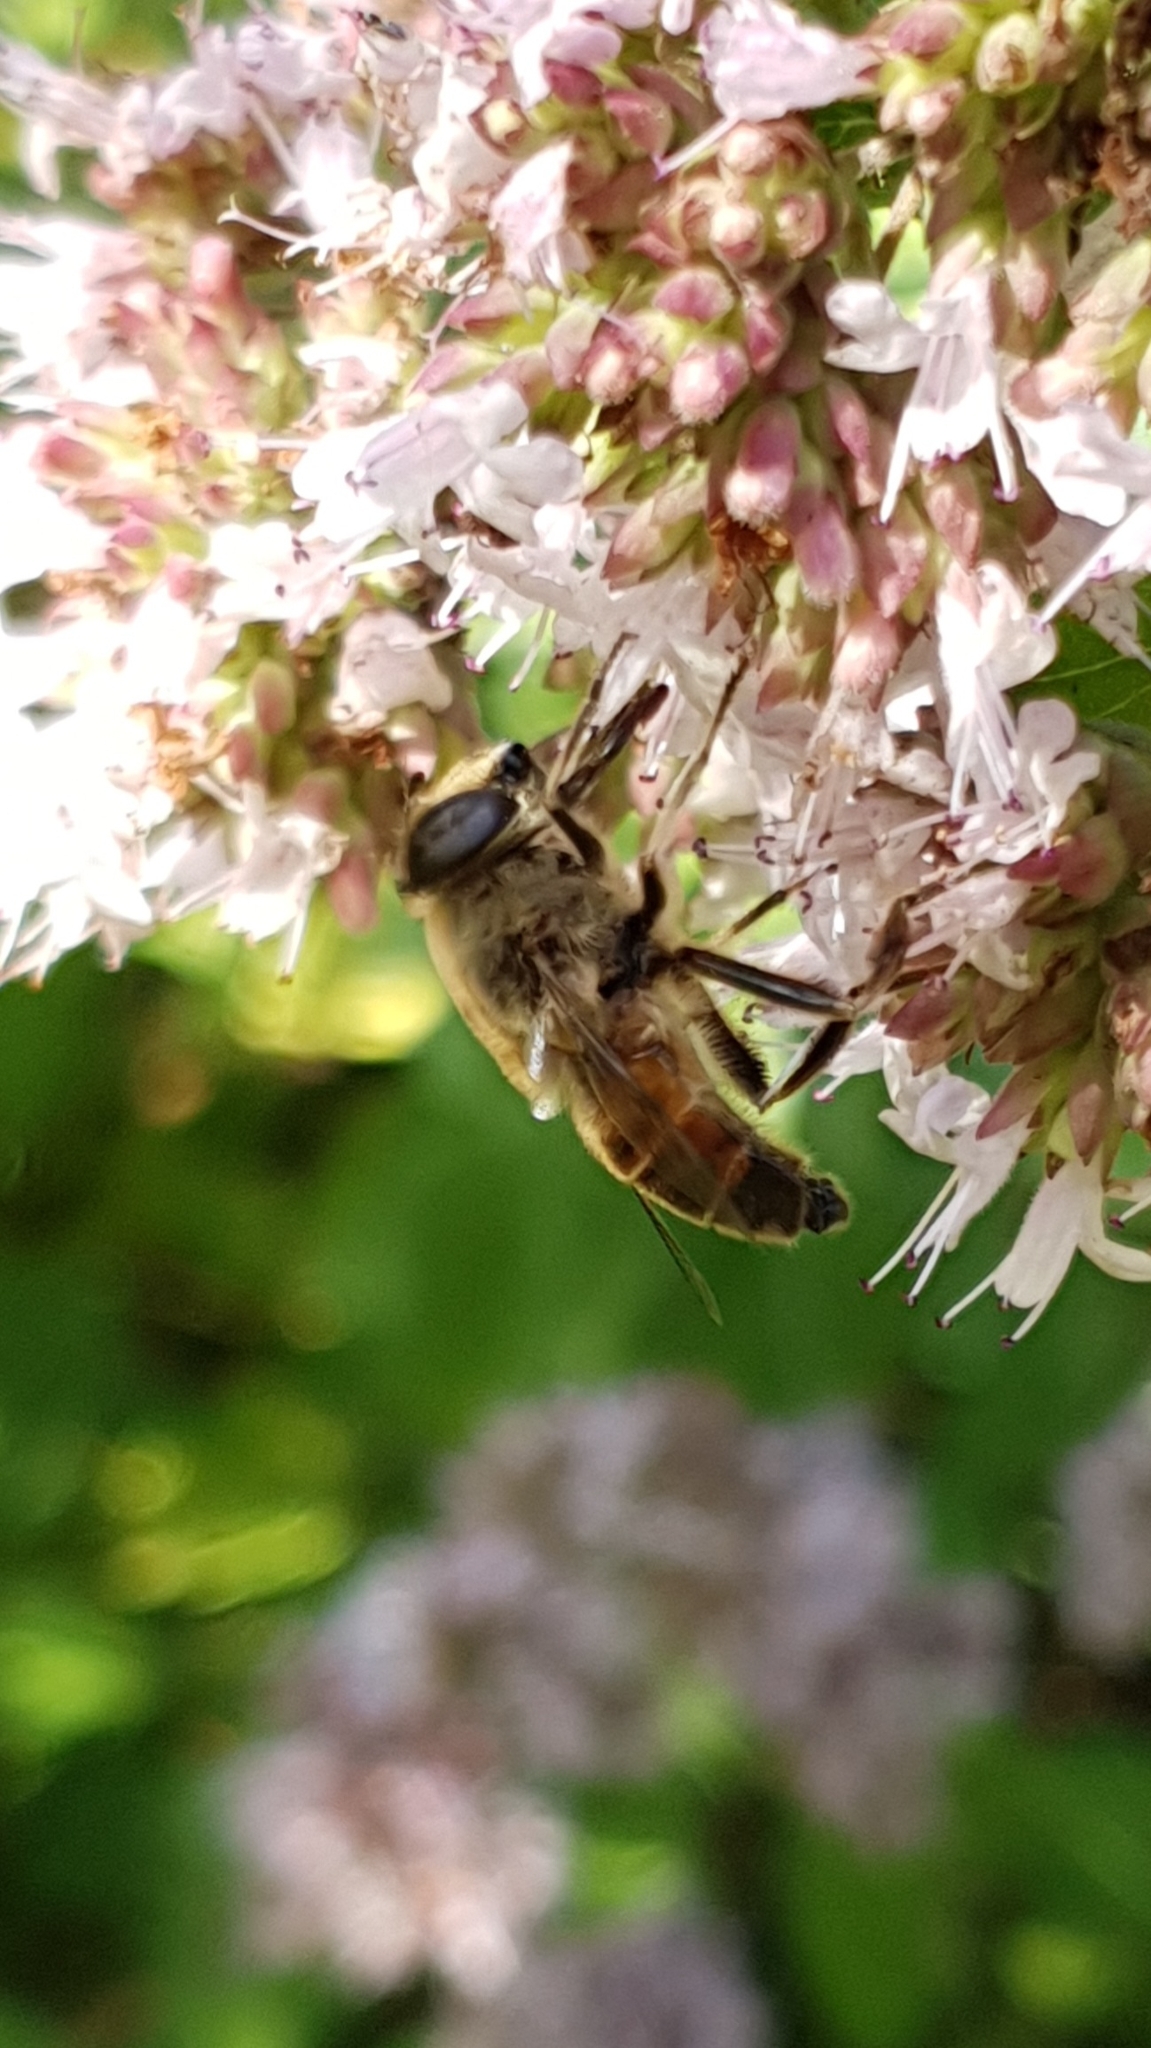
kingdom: Animalia
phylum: Arthropoda
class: Insecta
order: Diptera
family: Syrphidae
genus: Eristalis
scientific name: Eristalis tenax
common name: Drone fly
